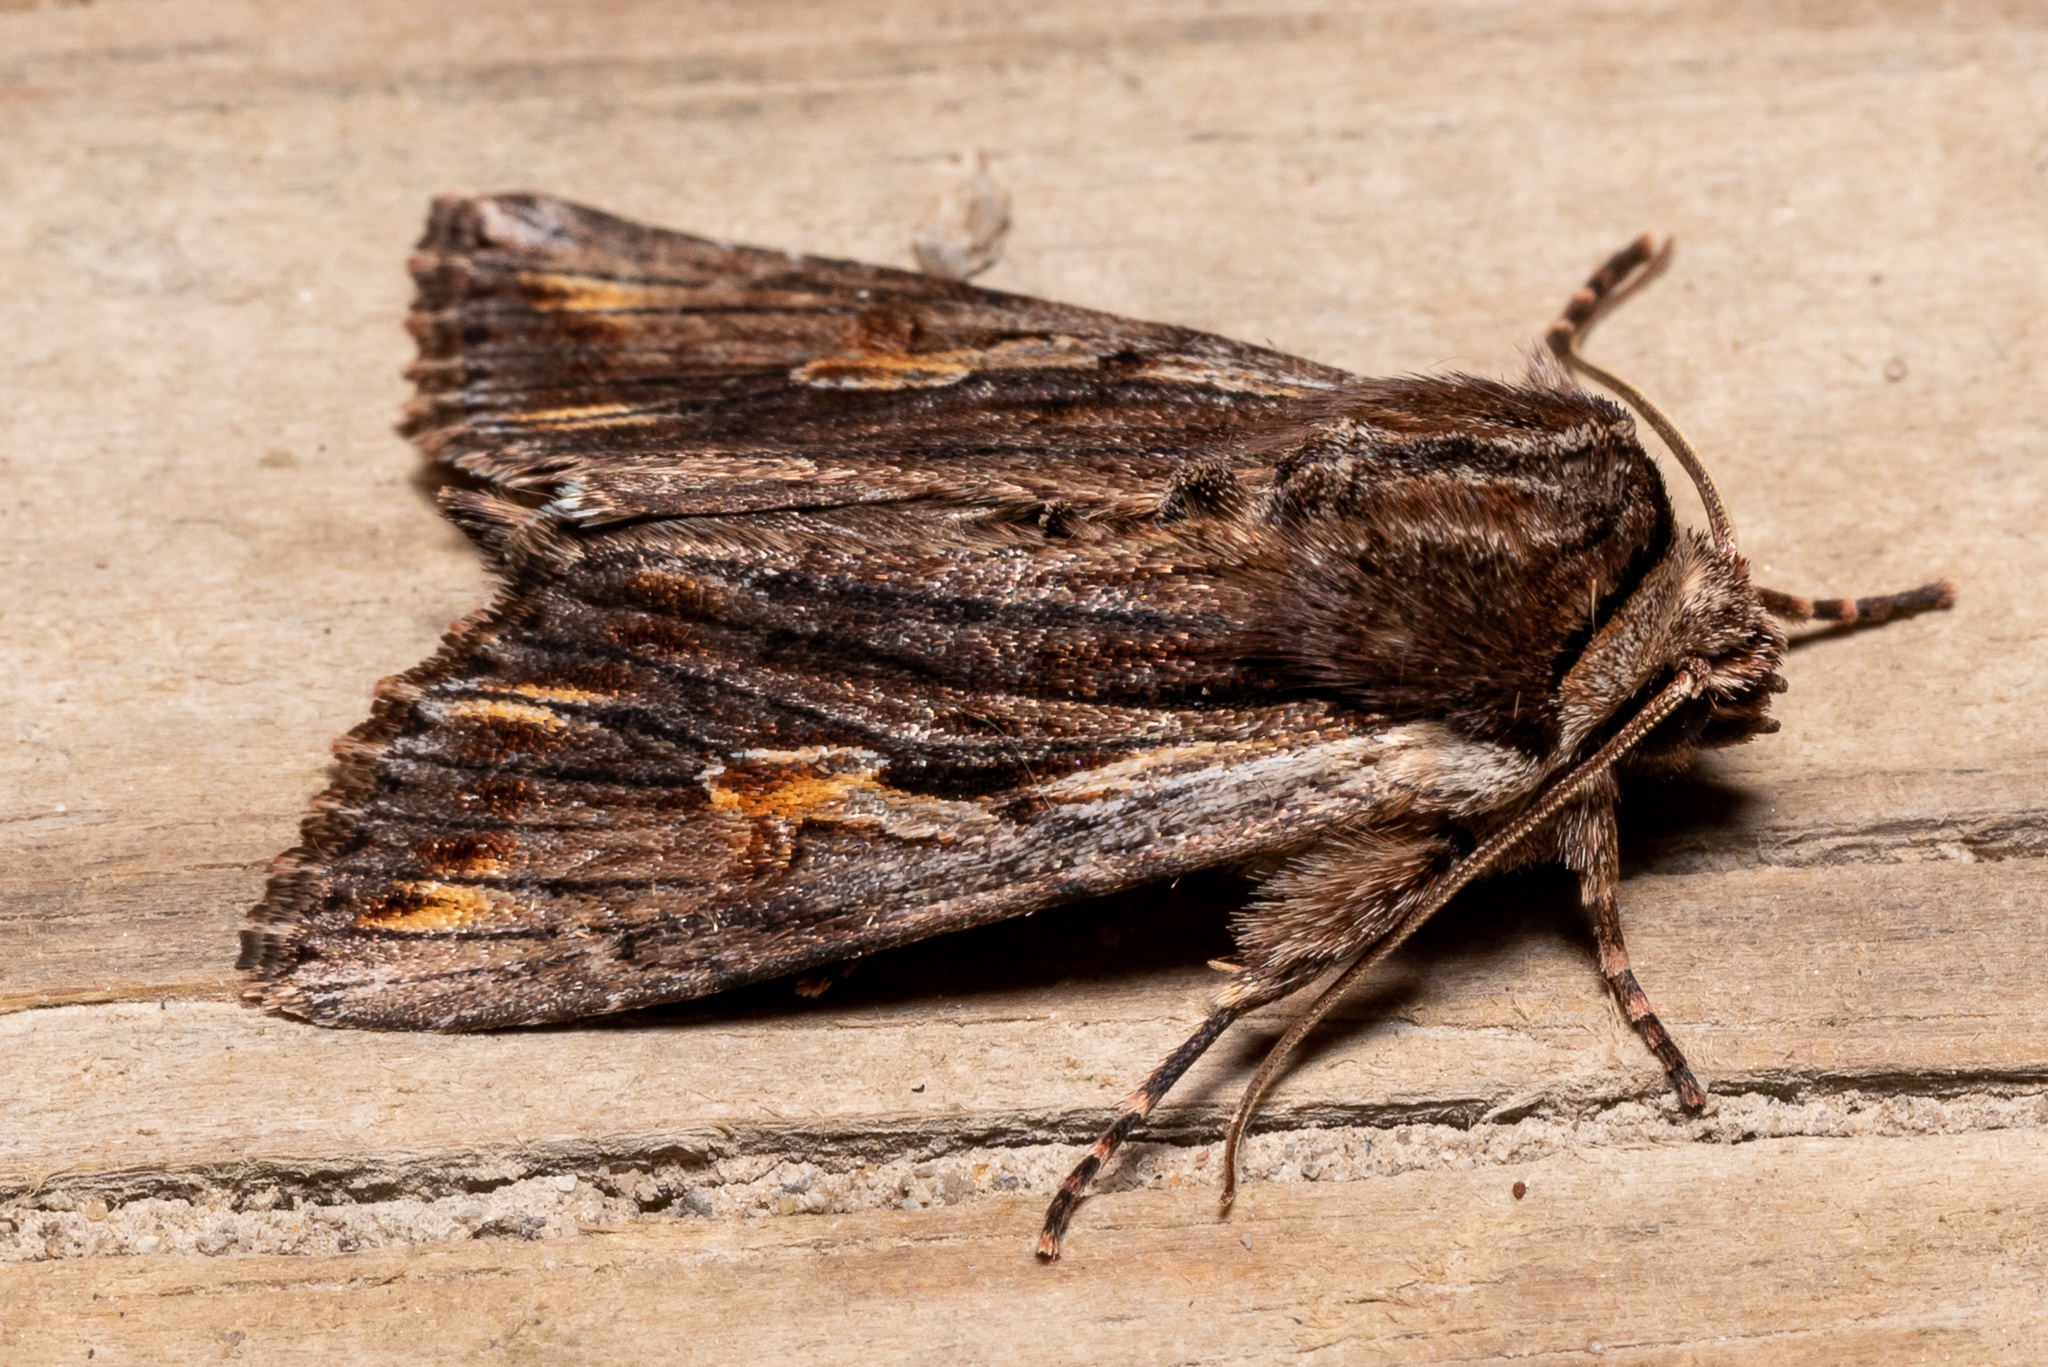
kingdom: Animalia
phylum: Arthropoda
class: Insecta
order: Lepidoptera
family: Noctuidae
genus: Achatia
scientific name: Achatia evicta
